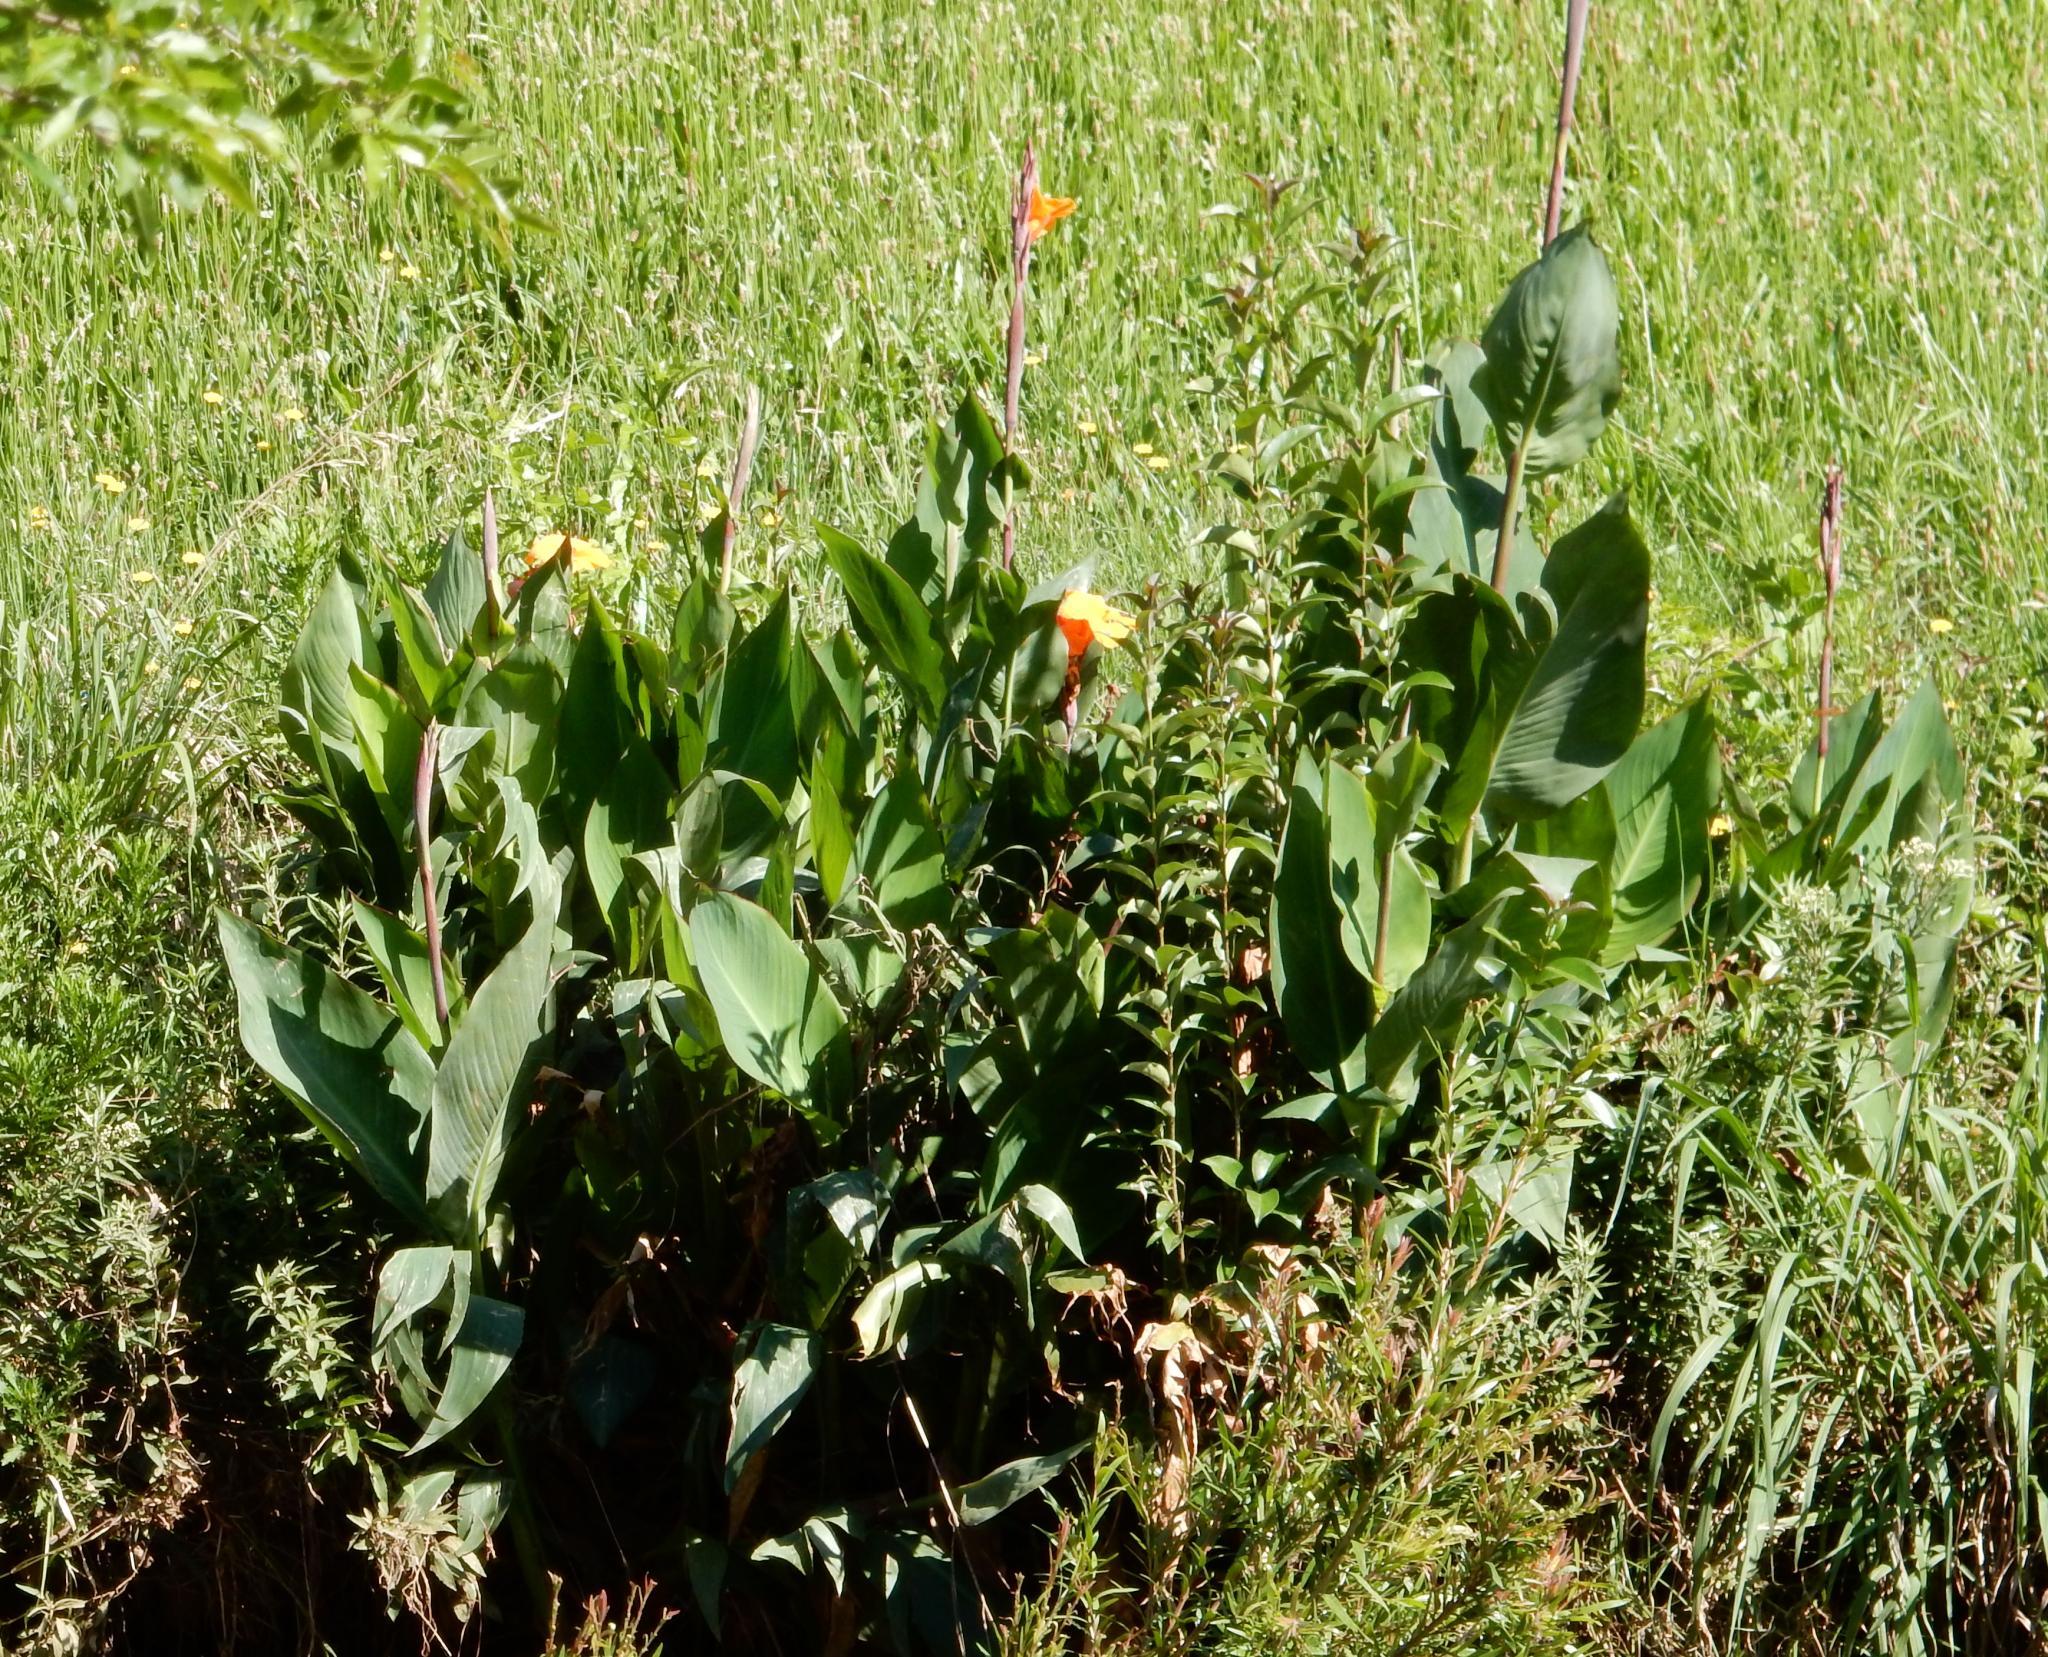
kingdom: Plantae
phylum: Tracheophyta
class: Liliopsida
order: Zingiberales
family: Cannaceae
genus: Canna
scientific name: Canna hybrida
